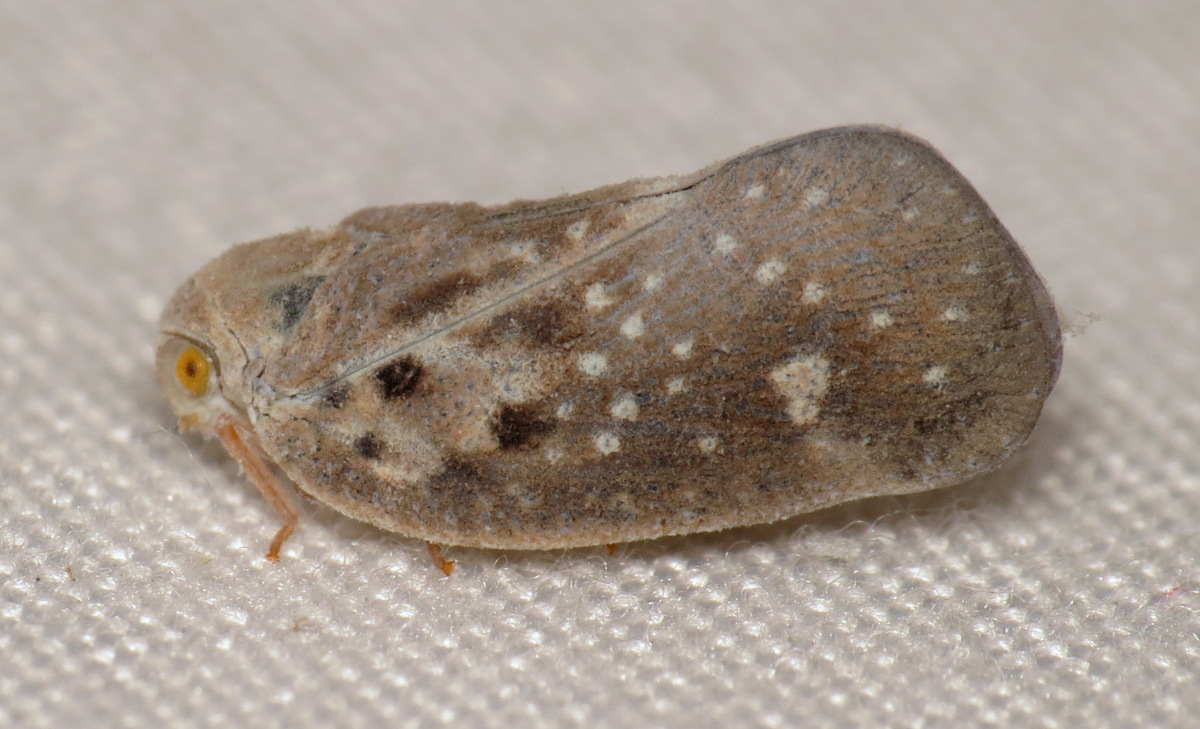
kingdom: Animalia
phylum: Arthropoda
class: Insecta
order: Hemiptera
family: Flatidae
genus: Metcalfa
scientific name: Metcalfa pruinosa
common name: Citrus flatid planthopper
